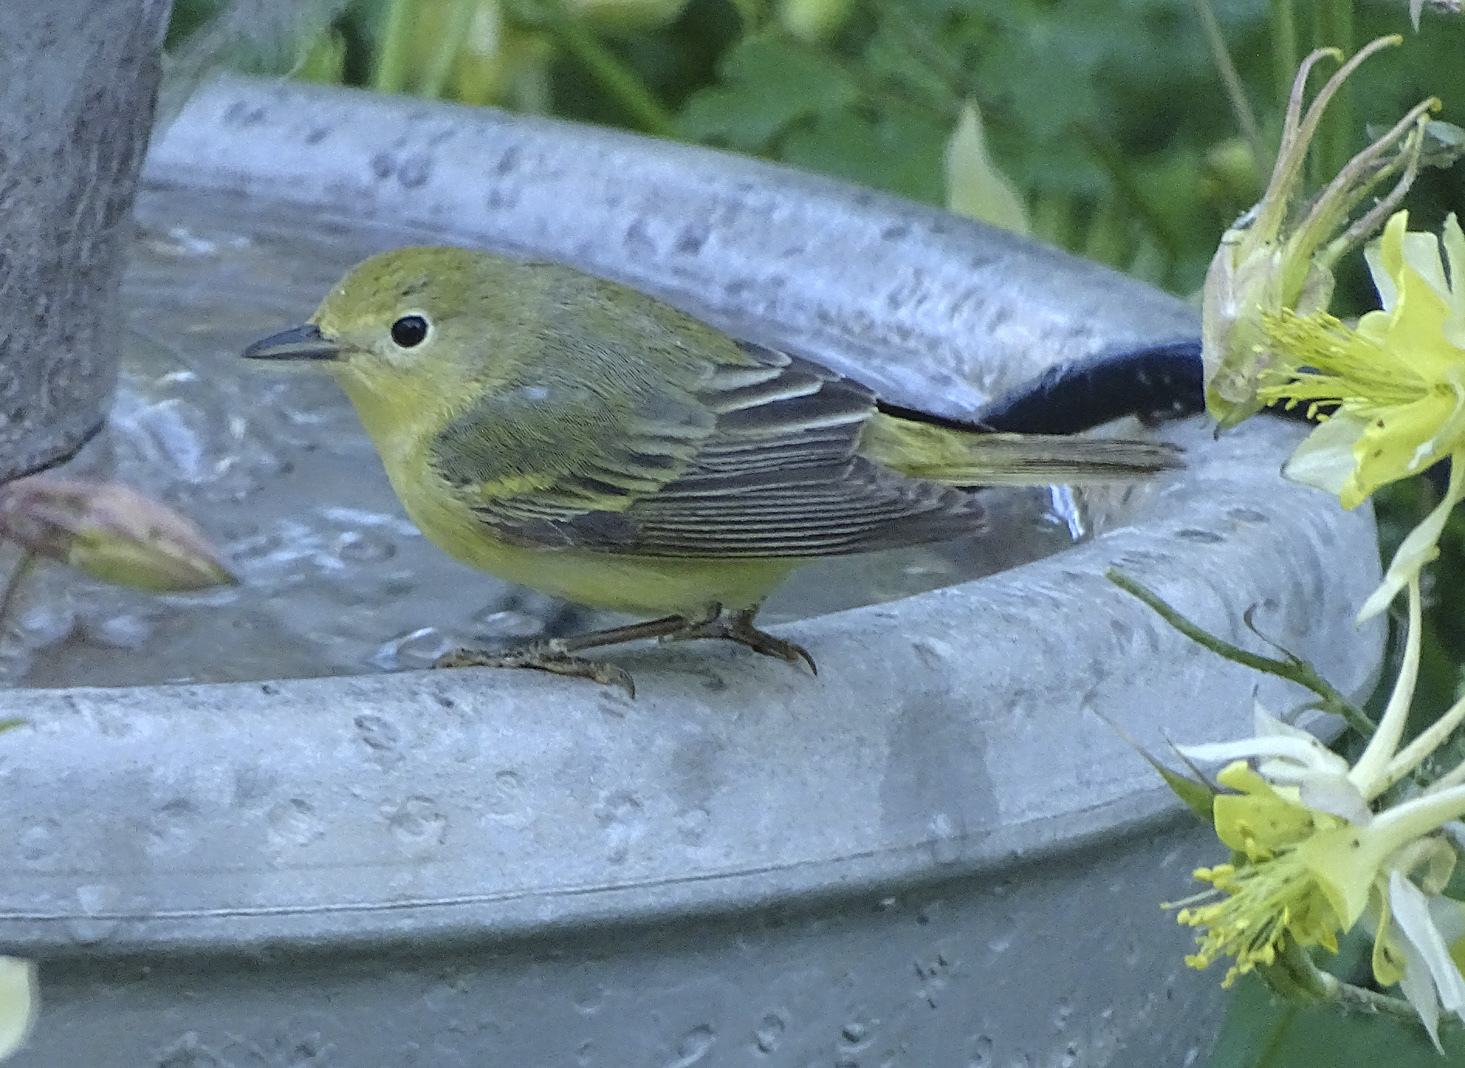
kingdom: Animalia
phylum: Chordata
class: Aves
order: Passeriformes
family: Parulidae
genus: Setophaga
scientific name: Setophaga petechia
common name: Yellow warbler
